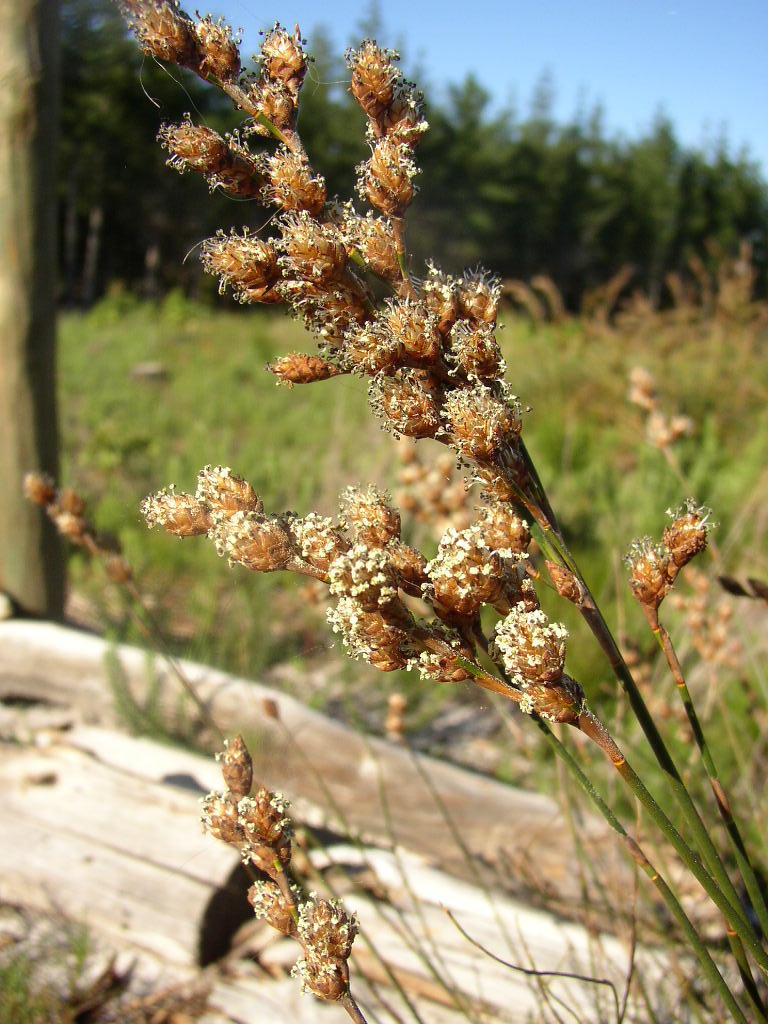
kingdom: Plantae
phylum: Tracheophyta
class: Liliopsida
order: Poales
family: Restionaceae
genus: Restio
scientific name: Restio bifurcus
